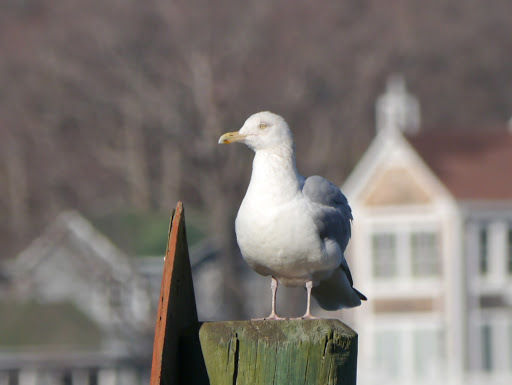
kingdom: Animalia
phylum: Chordata
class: Aves
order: Charadriiformes
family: Laridae
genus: Larus
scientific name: Larus argentatus
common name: Herring gull
